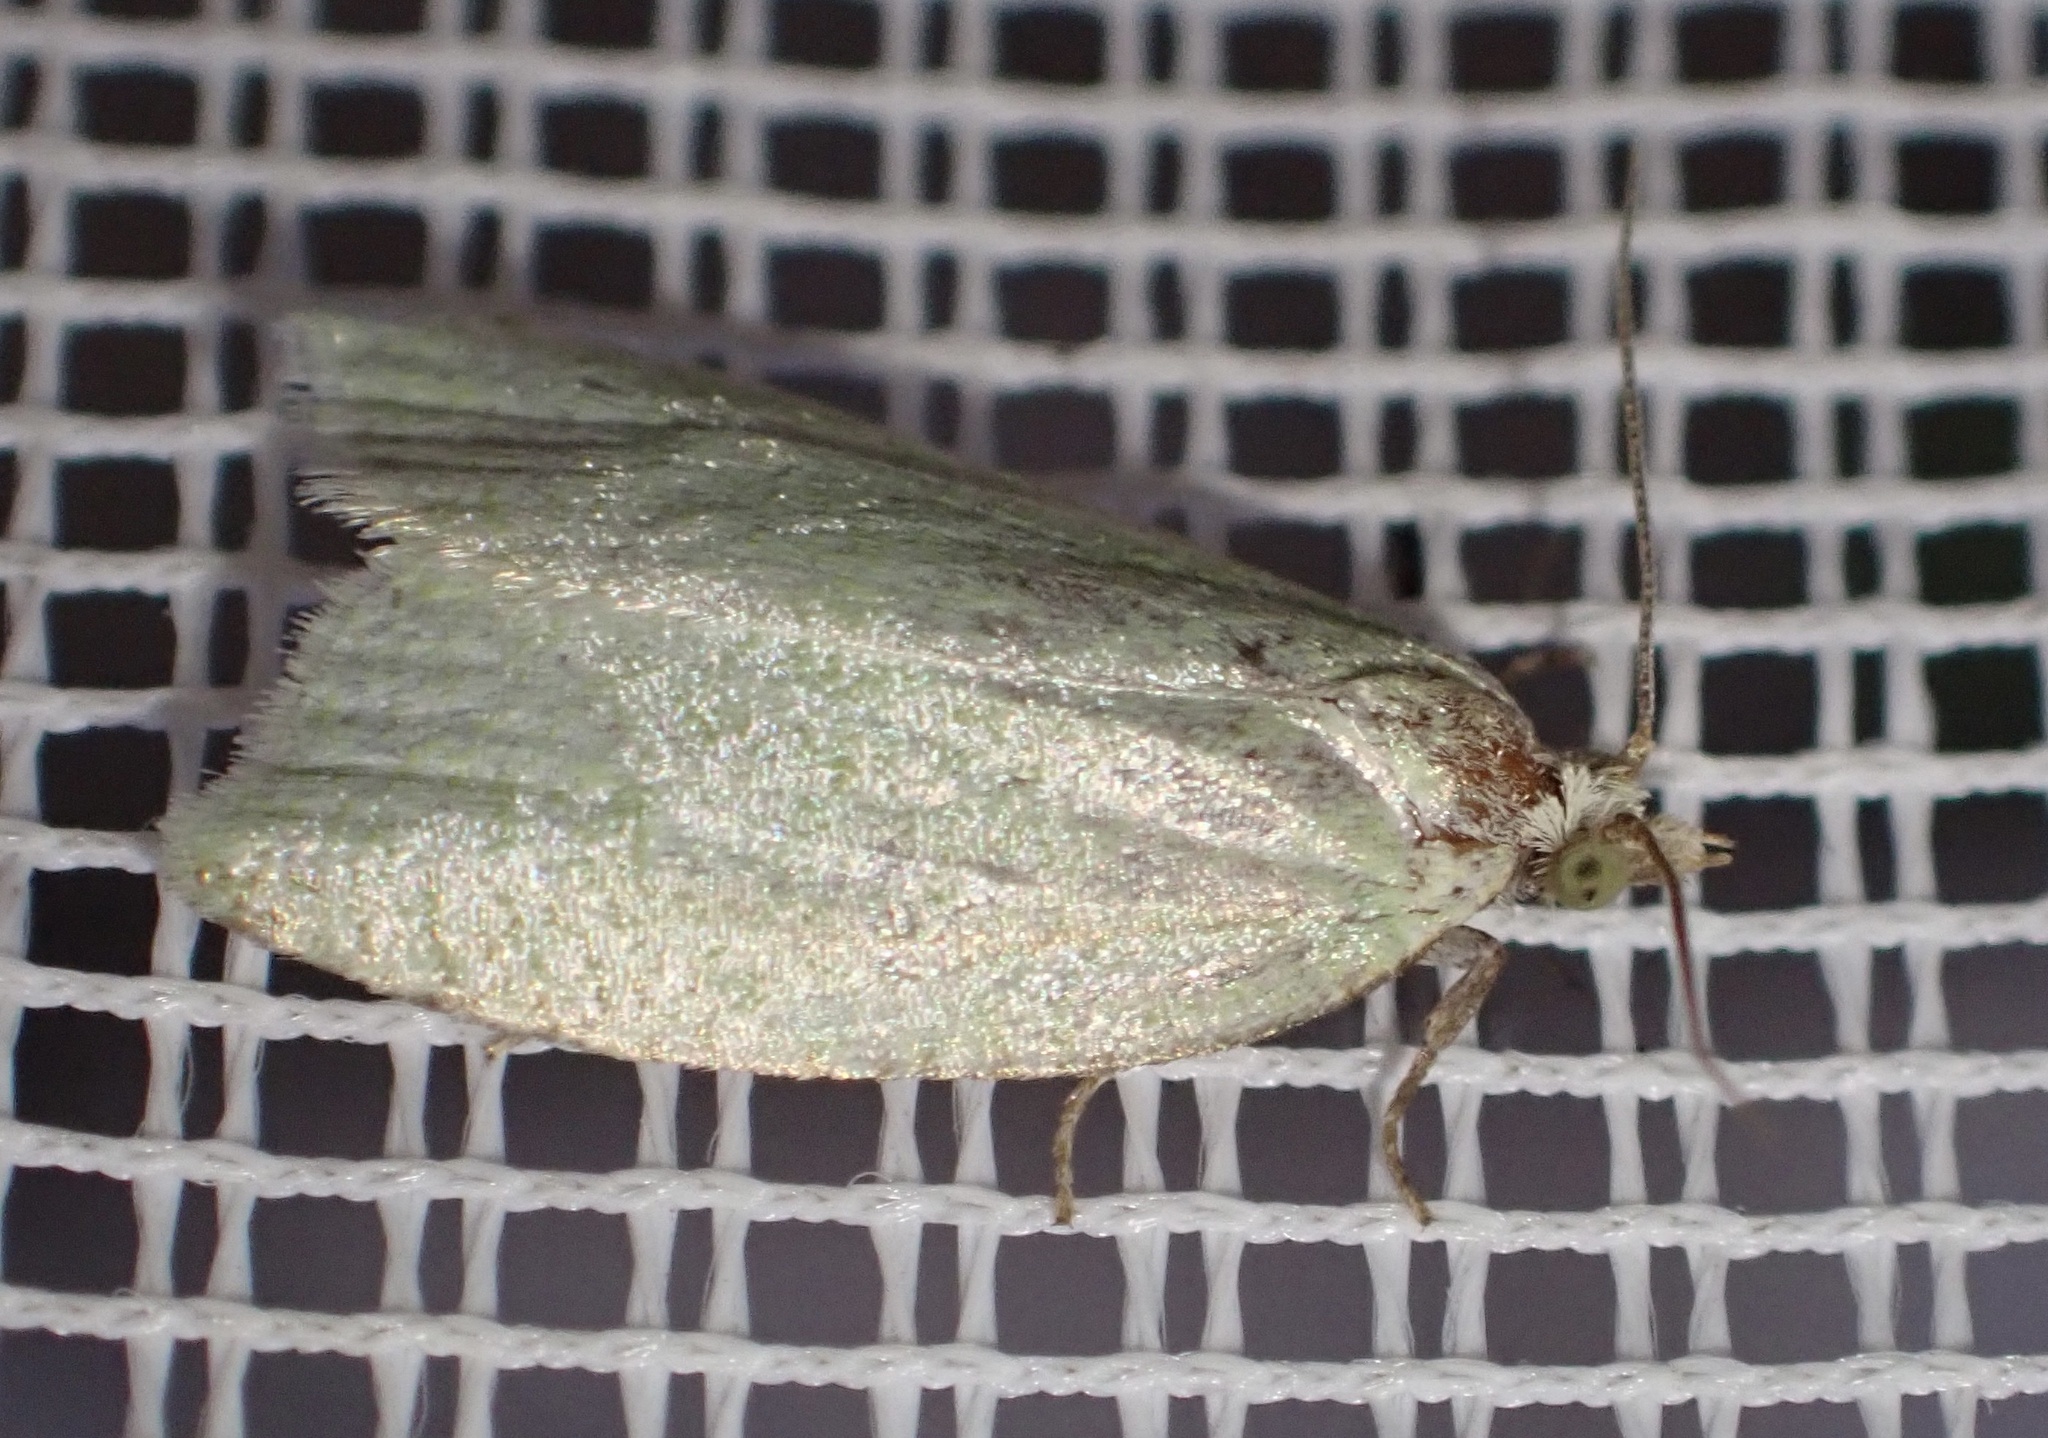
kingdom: Animalia
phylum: Arthropoda
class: Insecta
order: Lepidoptera
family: Tortricidae
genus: Tortrix
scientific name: Tortrix viridana
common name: Green oak tortrix
